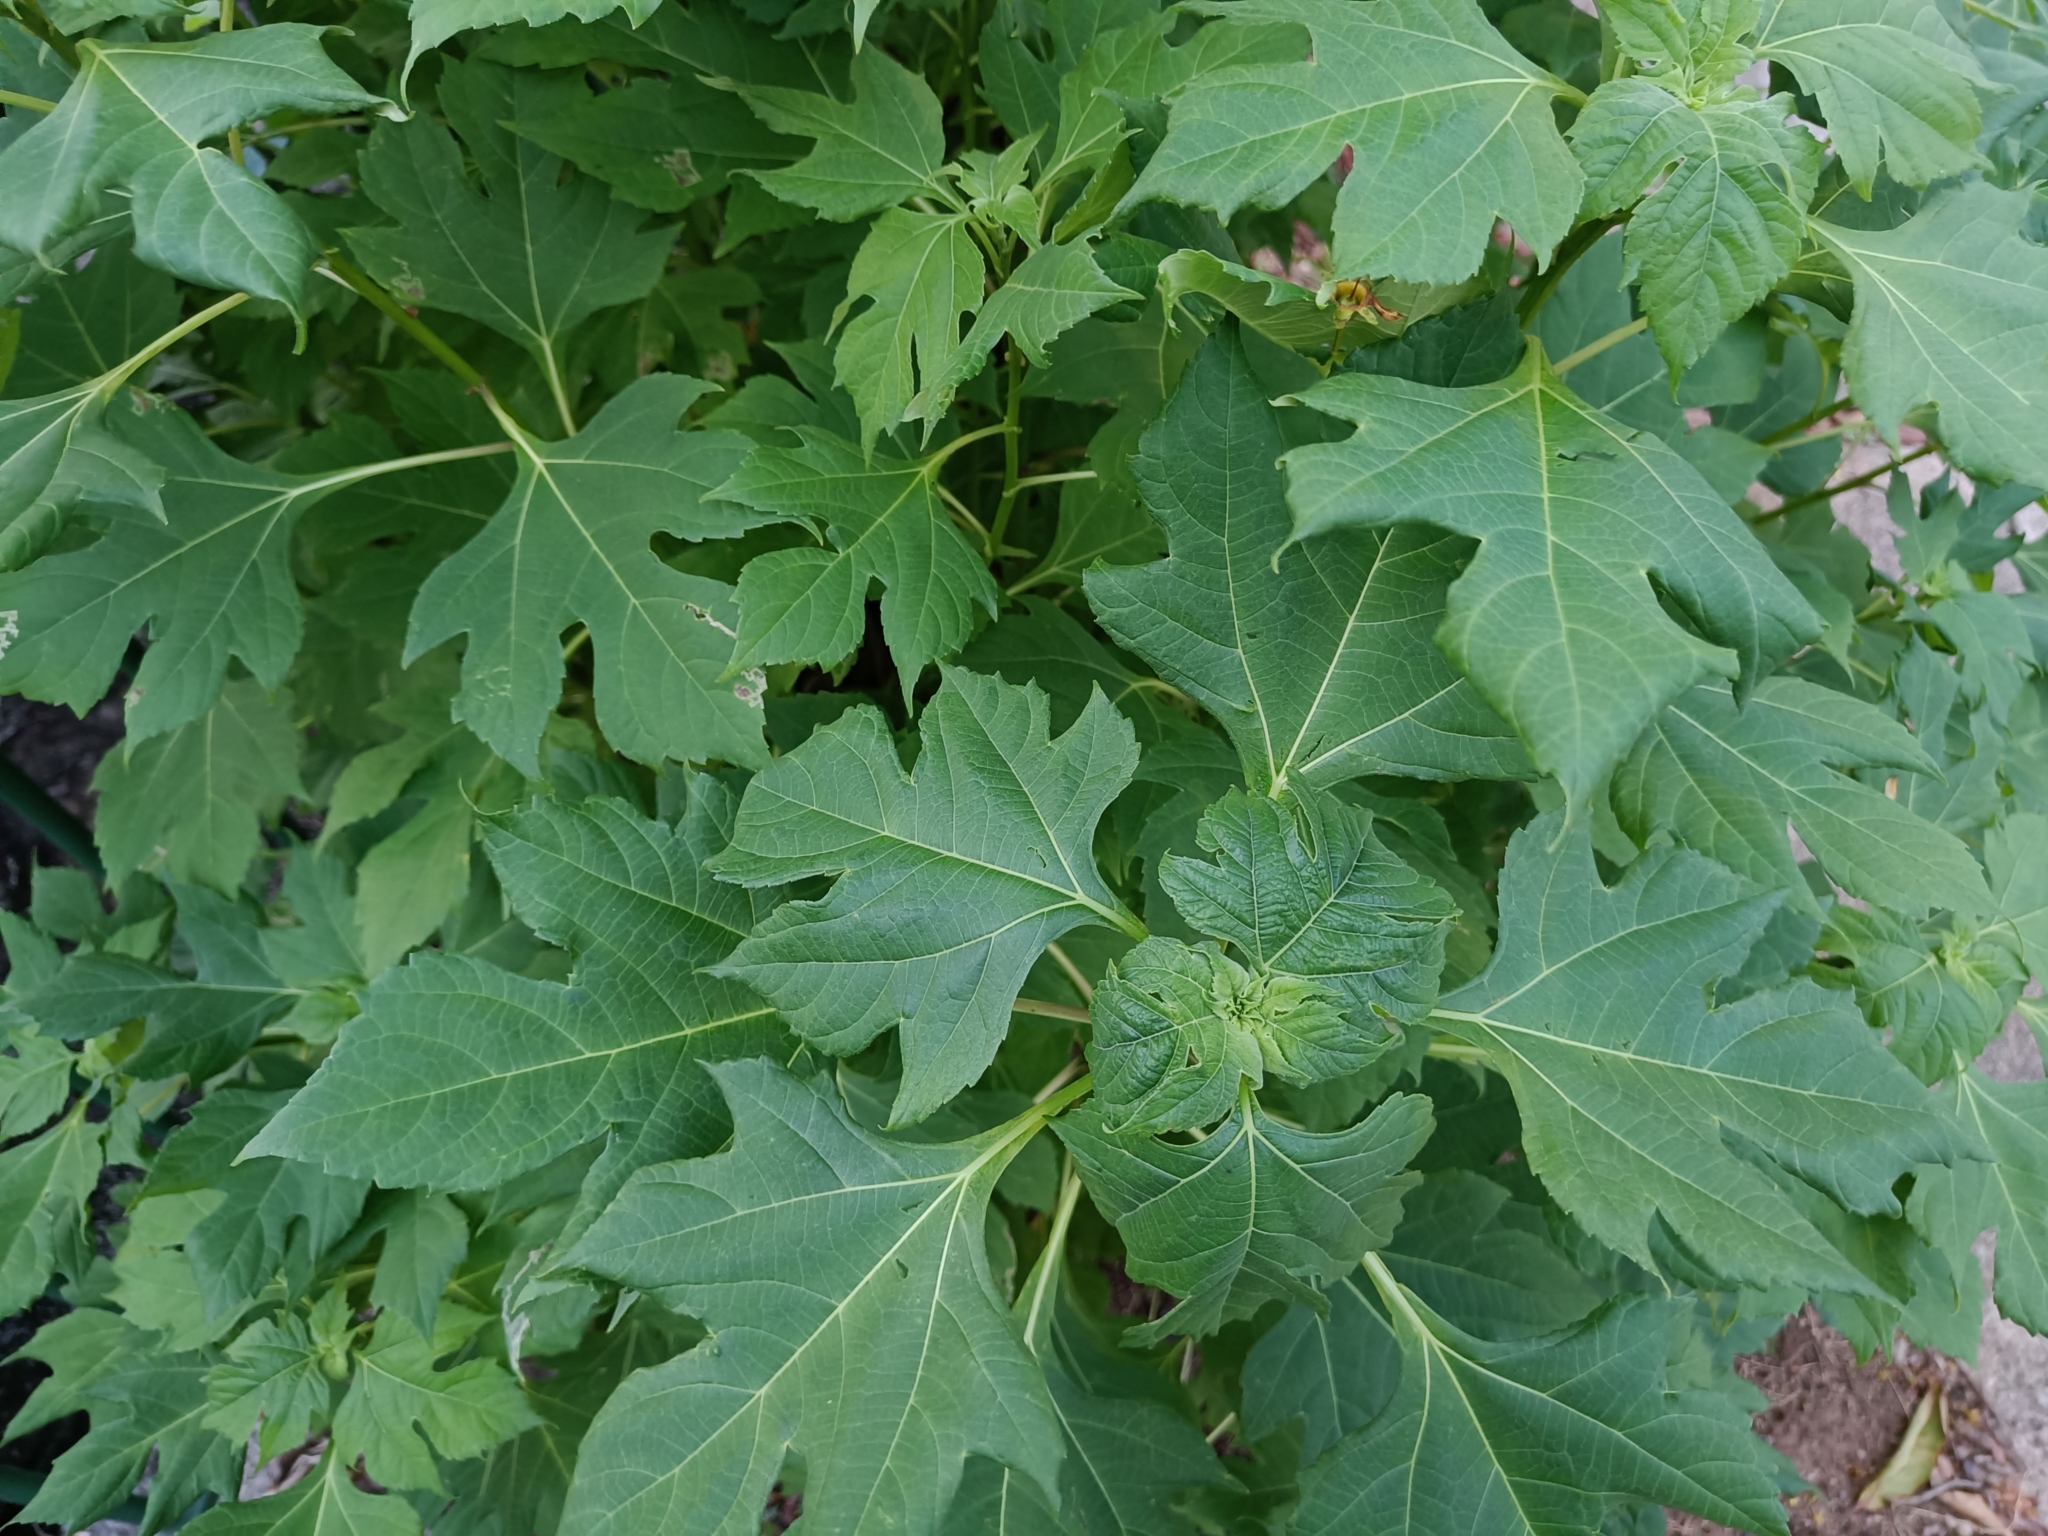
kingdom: Plantae
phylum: Tracheophyta
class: Magnoliopsida
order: Asterales
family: Asteraceae
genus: Tithonia
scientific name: Tithonia diversifolia
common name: Tree marigold
